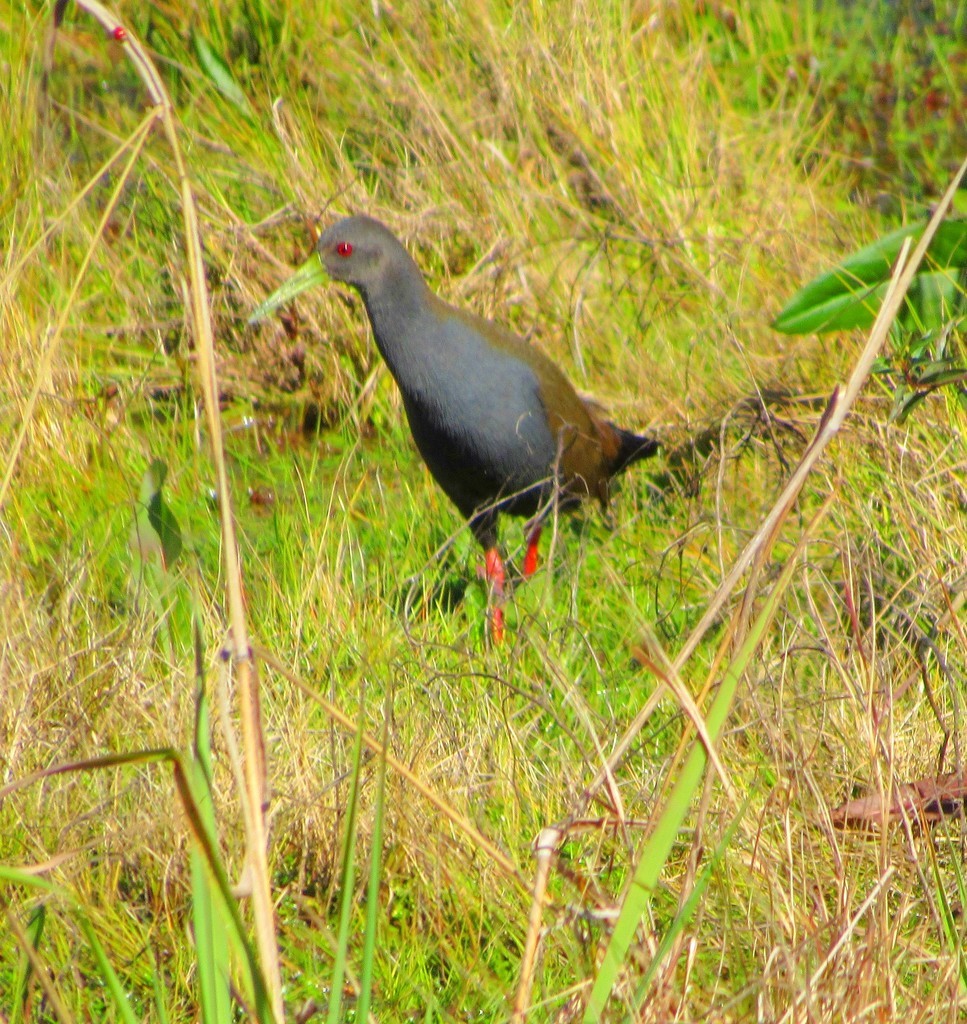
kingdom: Animalia
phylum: Chordata
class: Aves
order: Gruiformes
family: Rallidae
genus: Pardirallus
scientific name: Pardirallus nigricans
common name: Blackish rail
